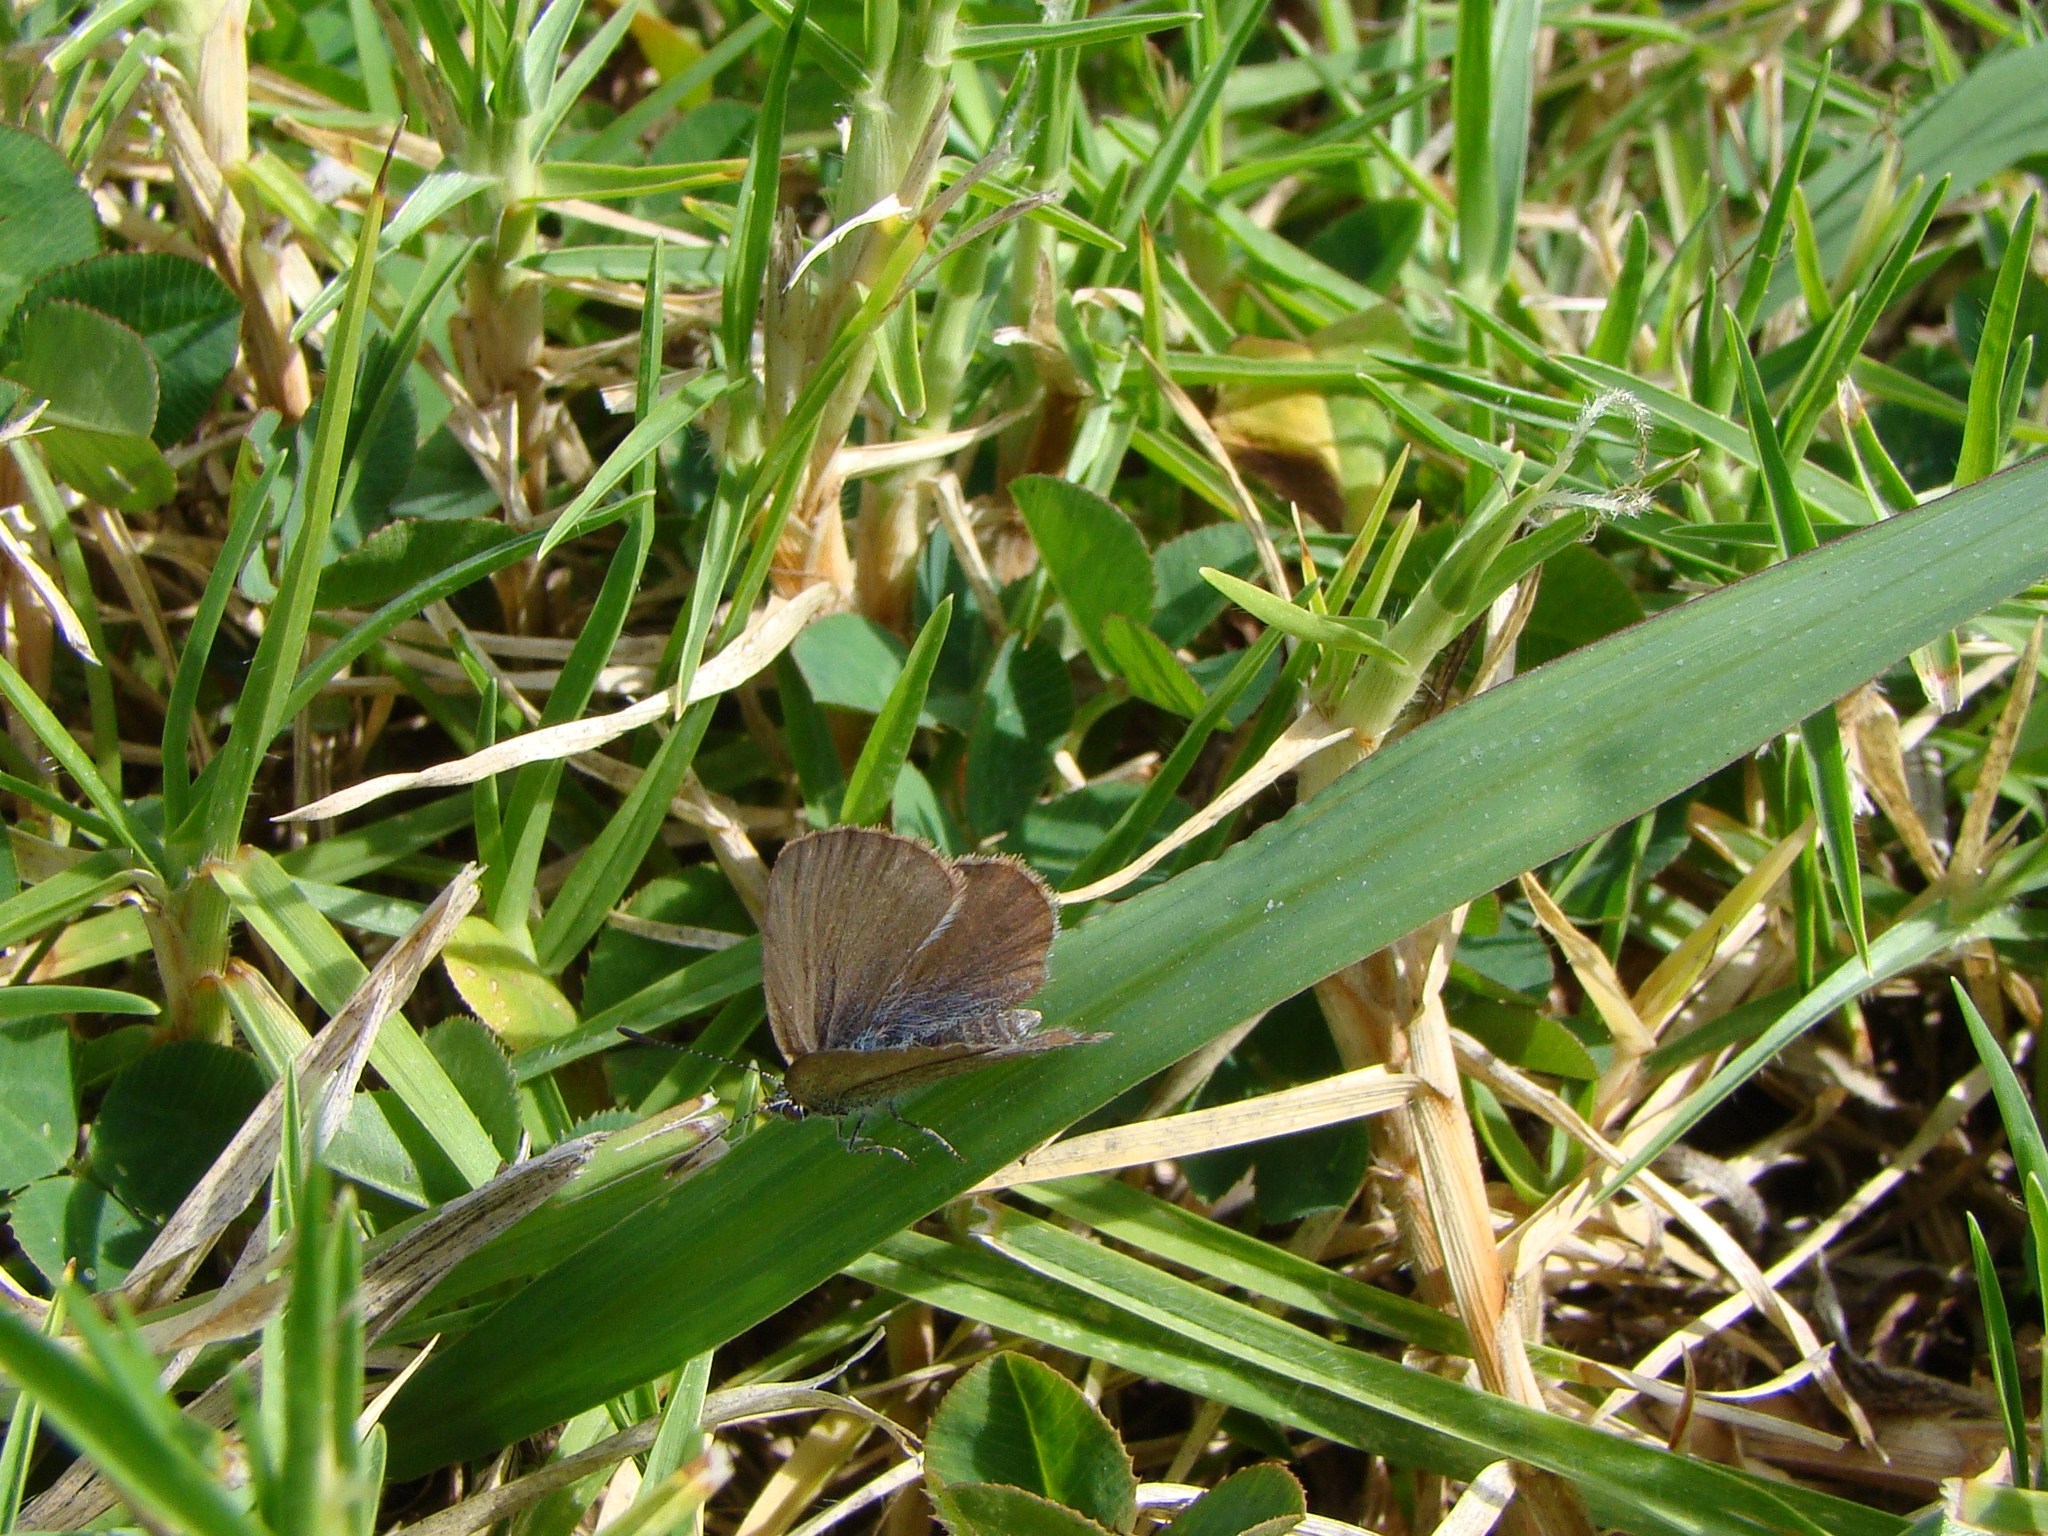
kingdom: Animalia
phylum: Arthropoda
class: Insecta
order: Lepidoptera
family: Lycaenidae
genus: Zizina
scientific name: Zizina labradus
